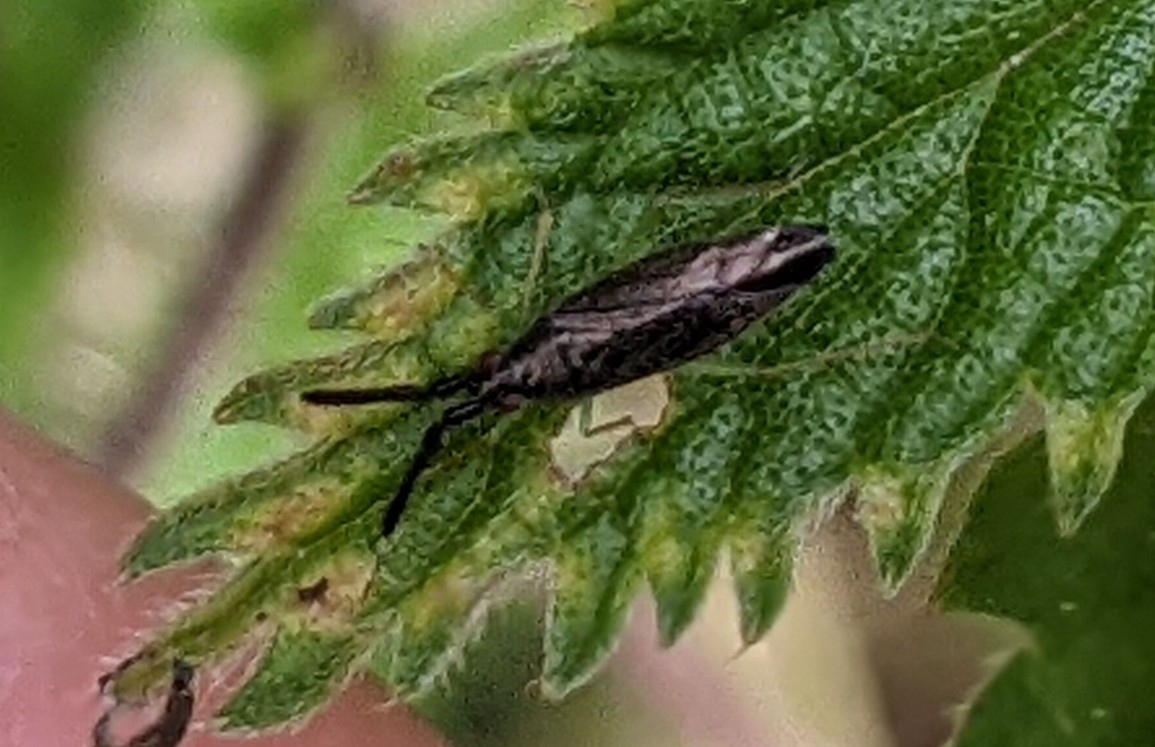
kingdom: Animalia
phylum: Arthropoda
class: Insecta
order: Hemiptera
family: Miridae
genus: Heterotoma
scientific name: Heterotoma planicornis
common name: Plant bug
